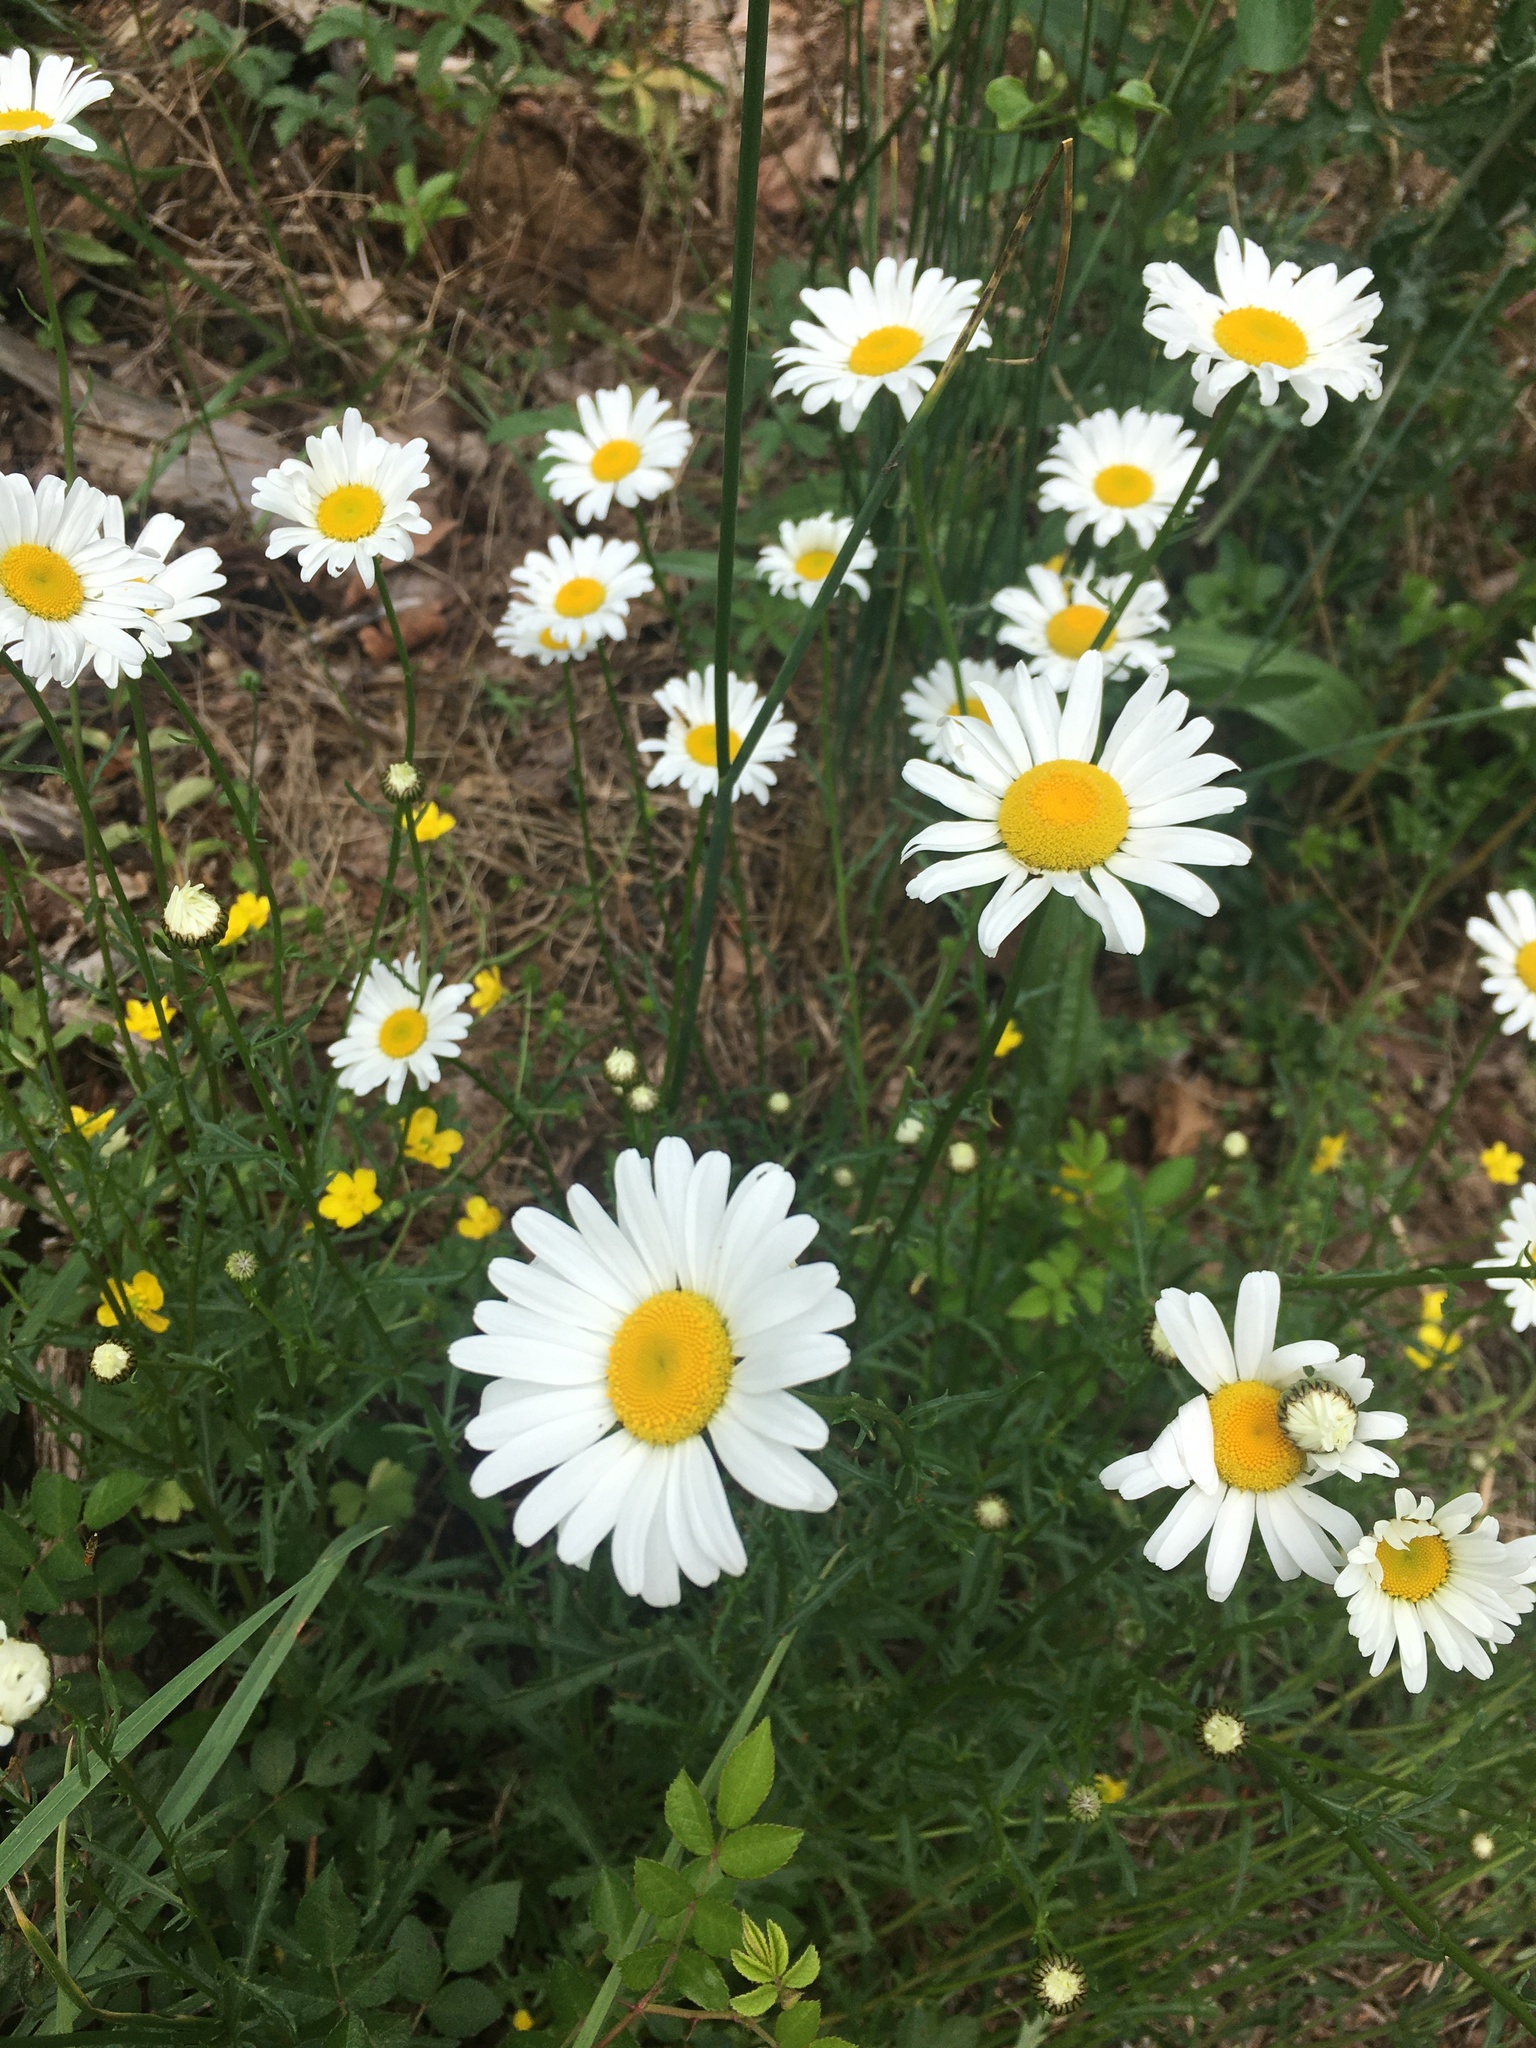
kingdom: Plantae
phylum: Tracheophyta
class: Magnoliopsida
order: Asterales
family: Asteraceae
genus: Leucanthemum
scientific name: Leucanthemum vulgare
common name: Oxeye daisy
